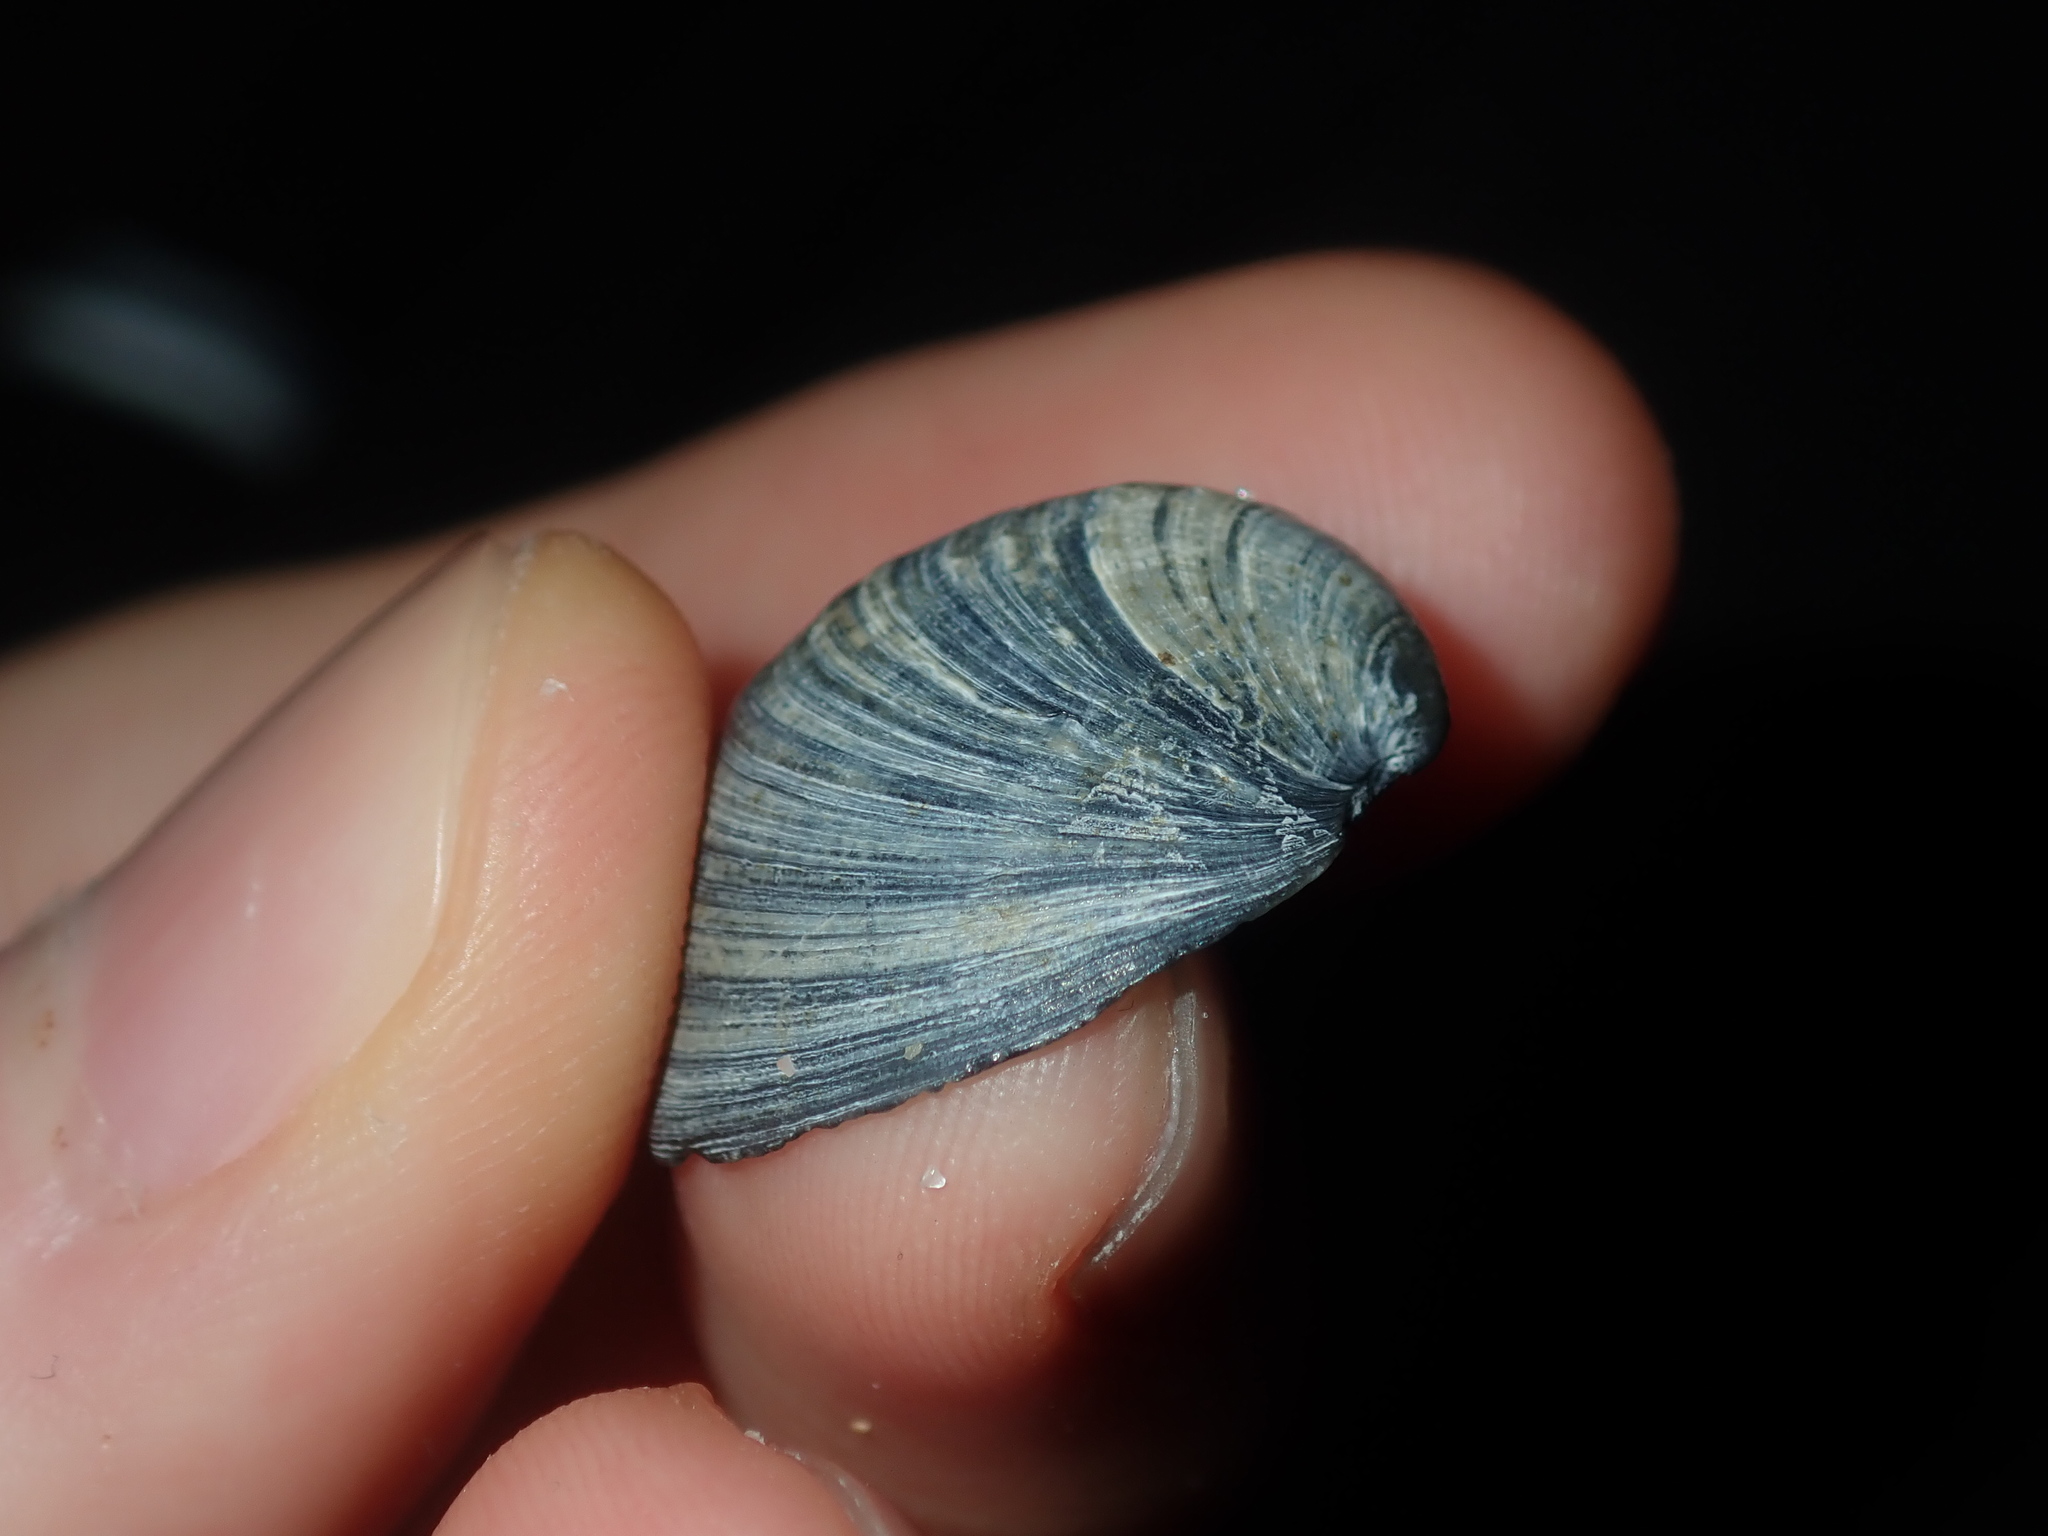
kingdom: Animalia
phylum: Mollusca
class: Bivalvia
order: Lucinida
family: Lucinidae
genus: Cavatidens
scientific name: Cavatidens omissa
